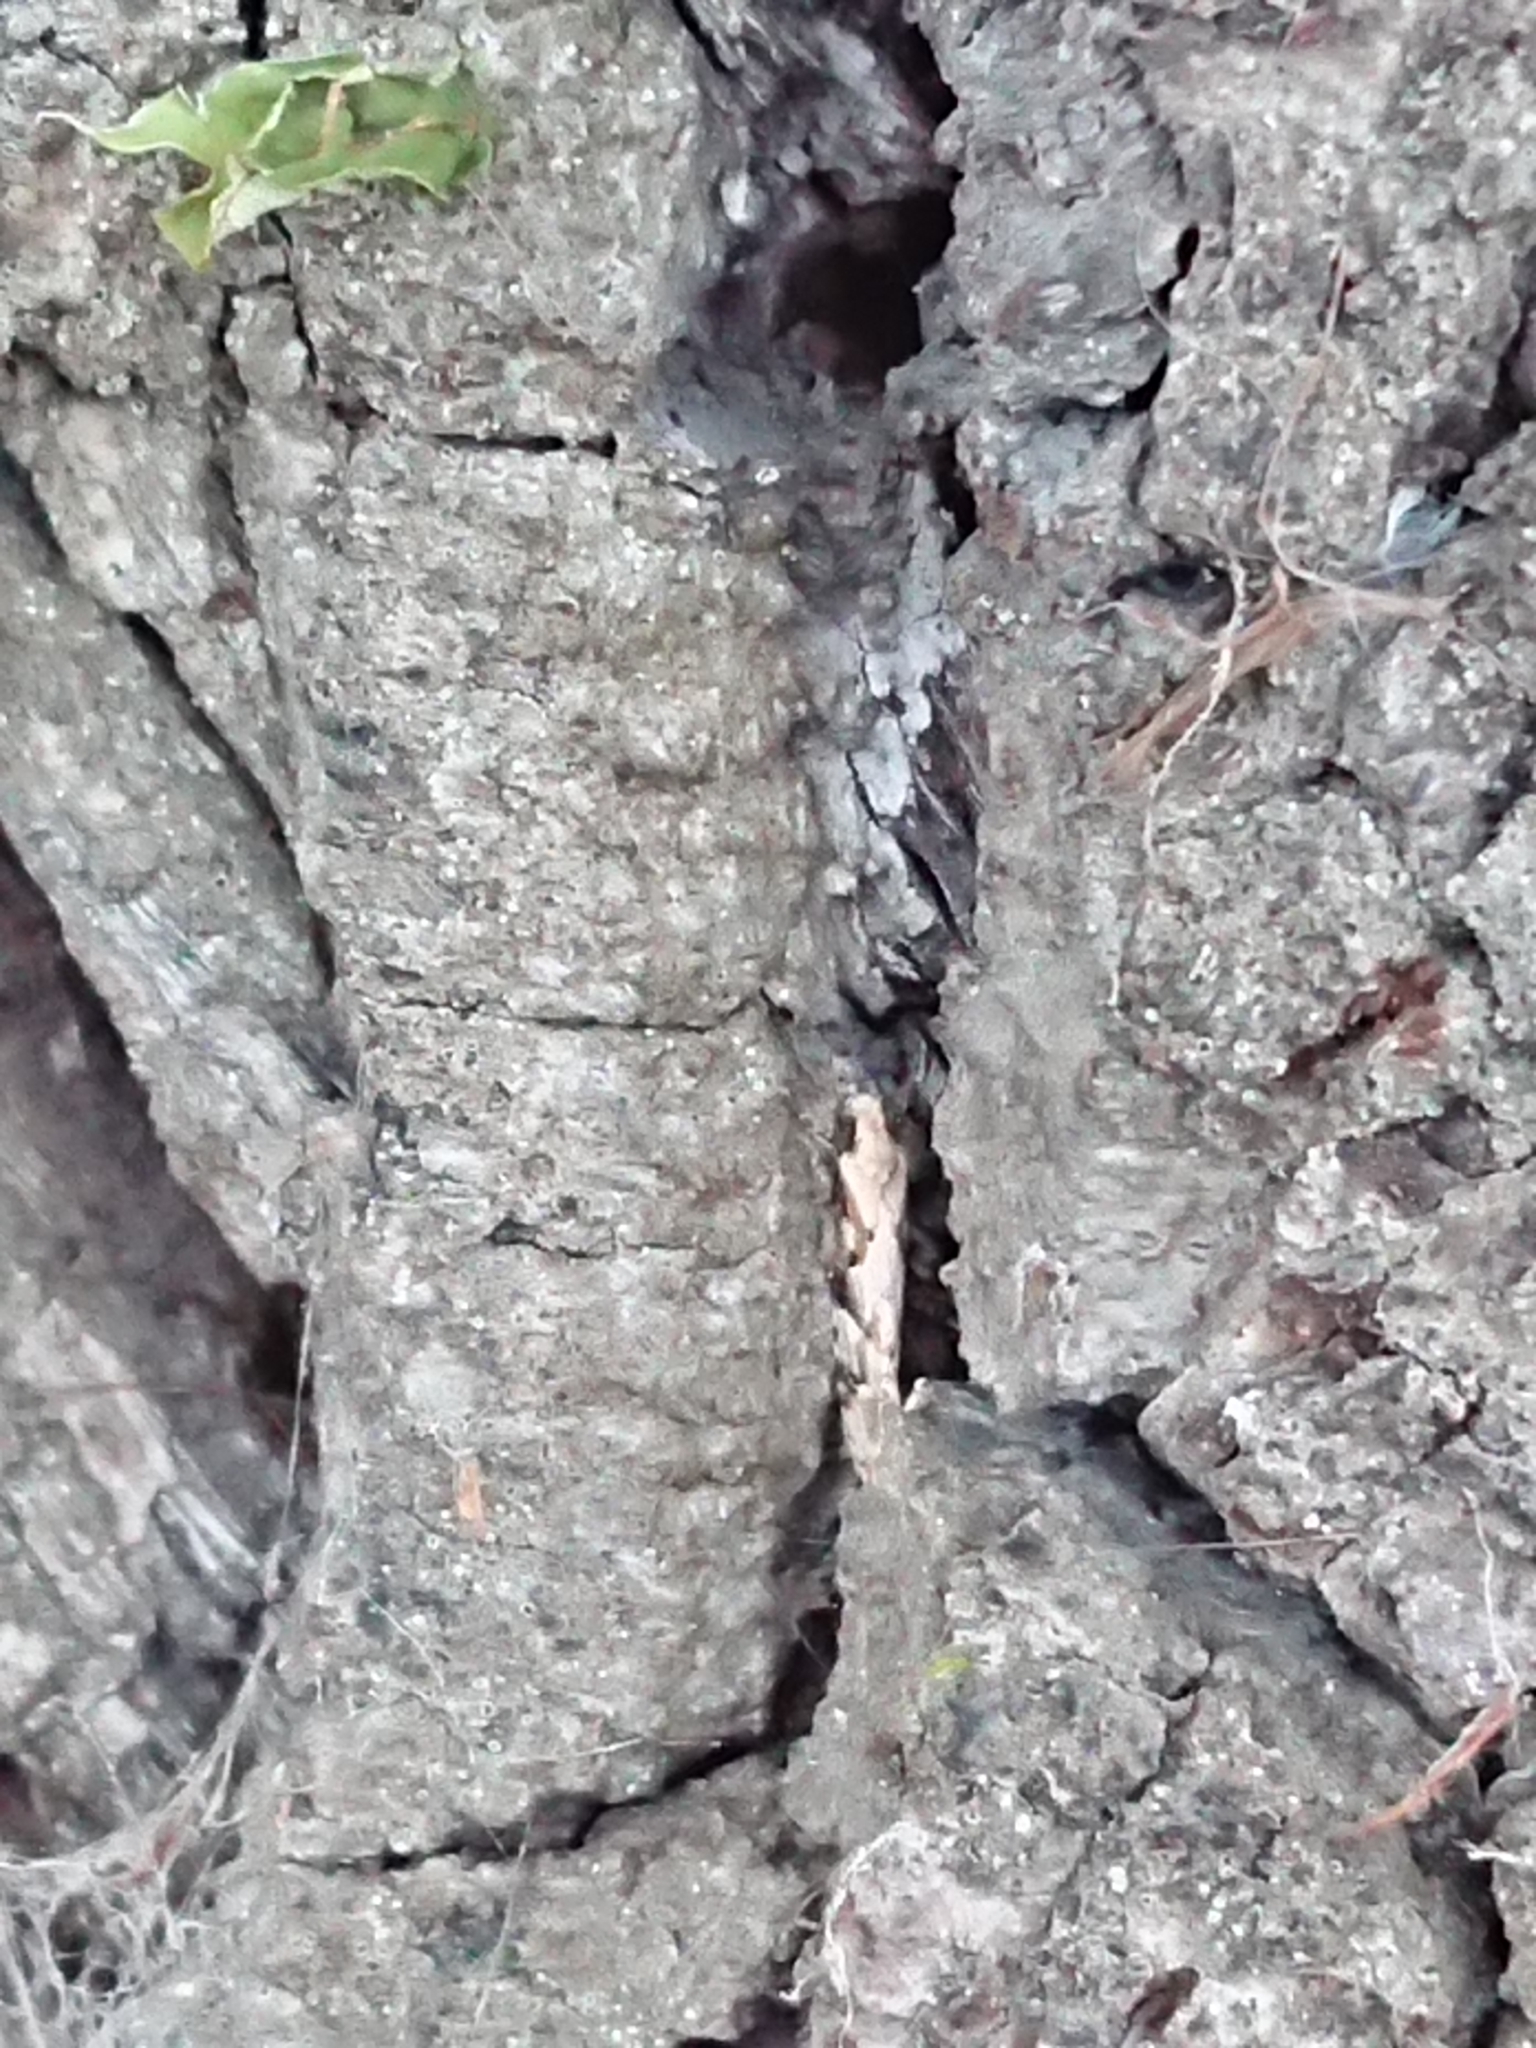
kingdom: Animalia
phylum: Arthropoda
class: Insecta
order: Lepidoptera
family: Tineidae
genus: Crypsitricha
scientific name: Crypsitricha mesotypa
